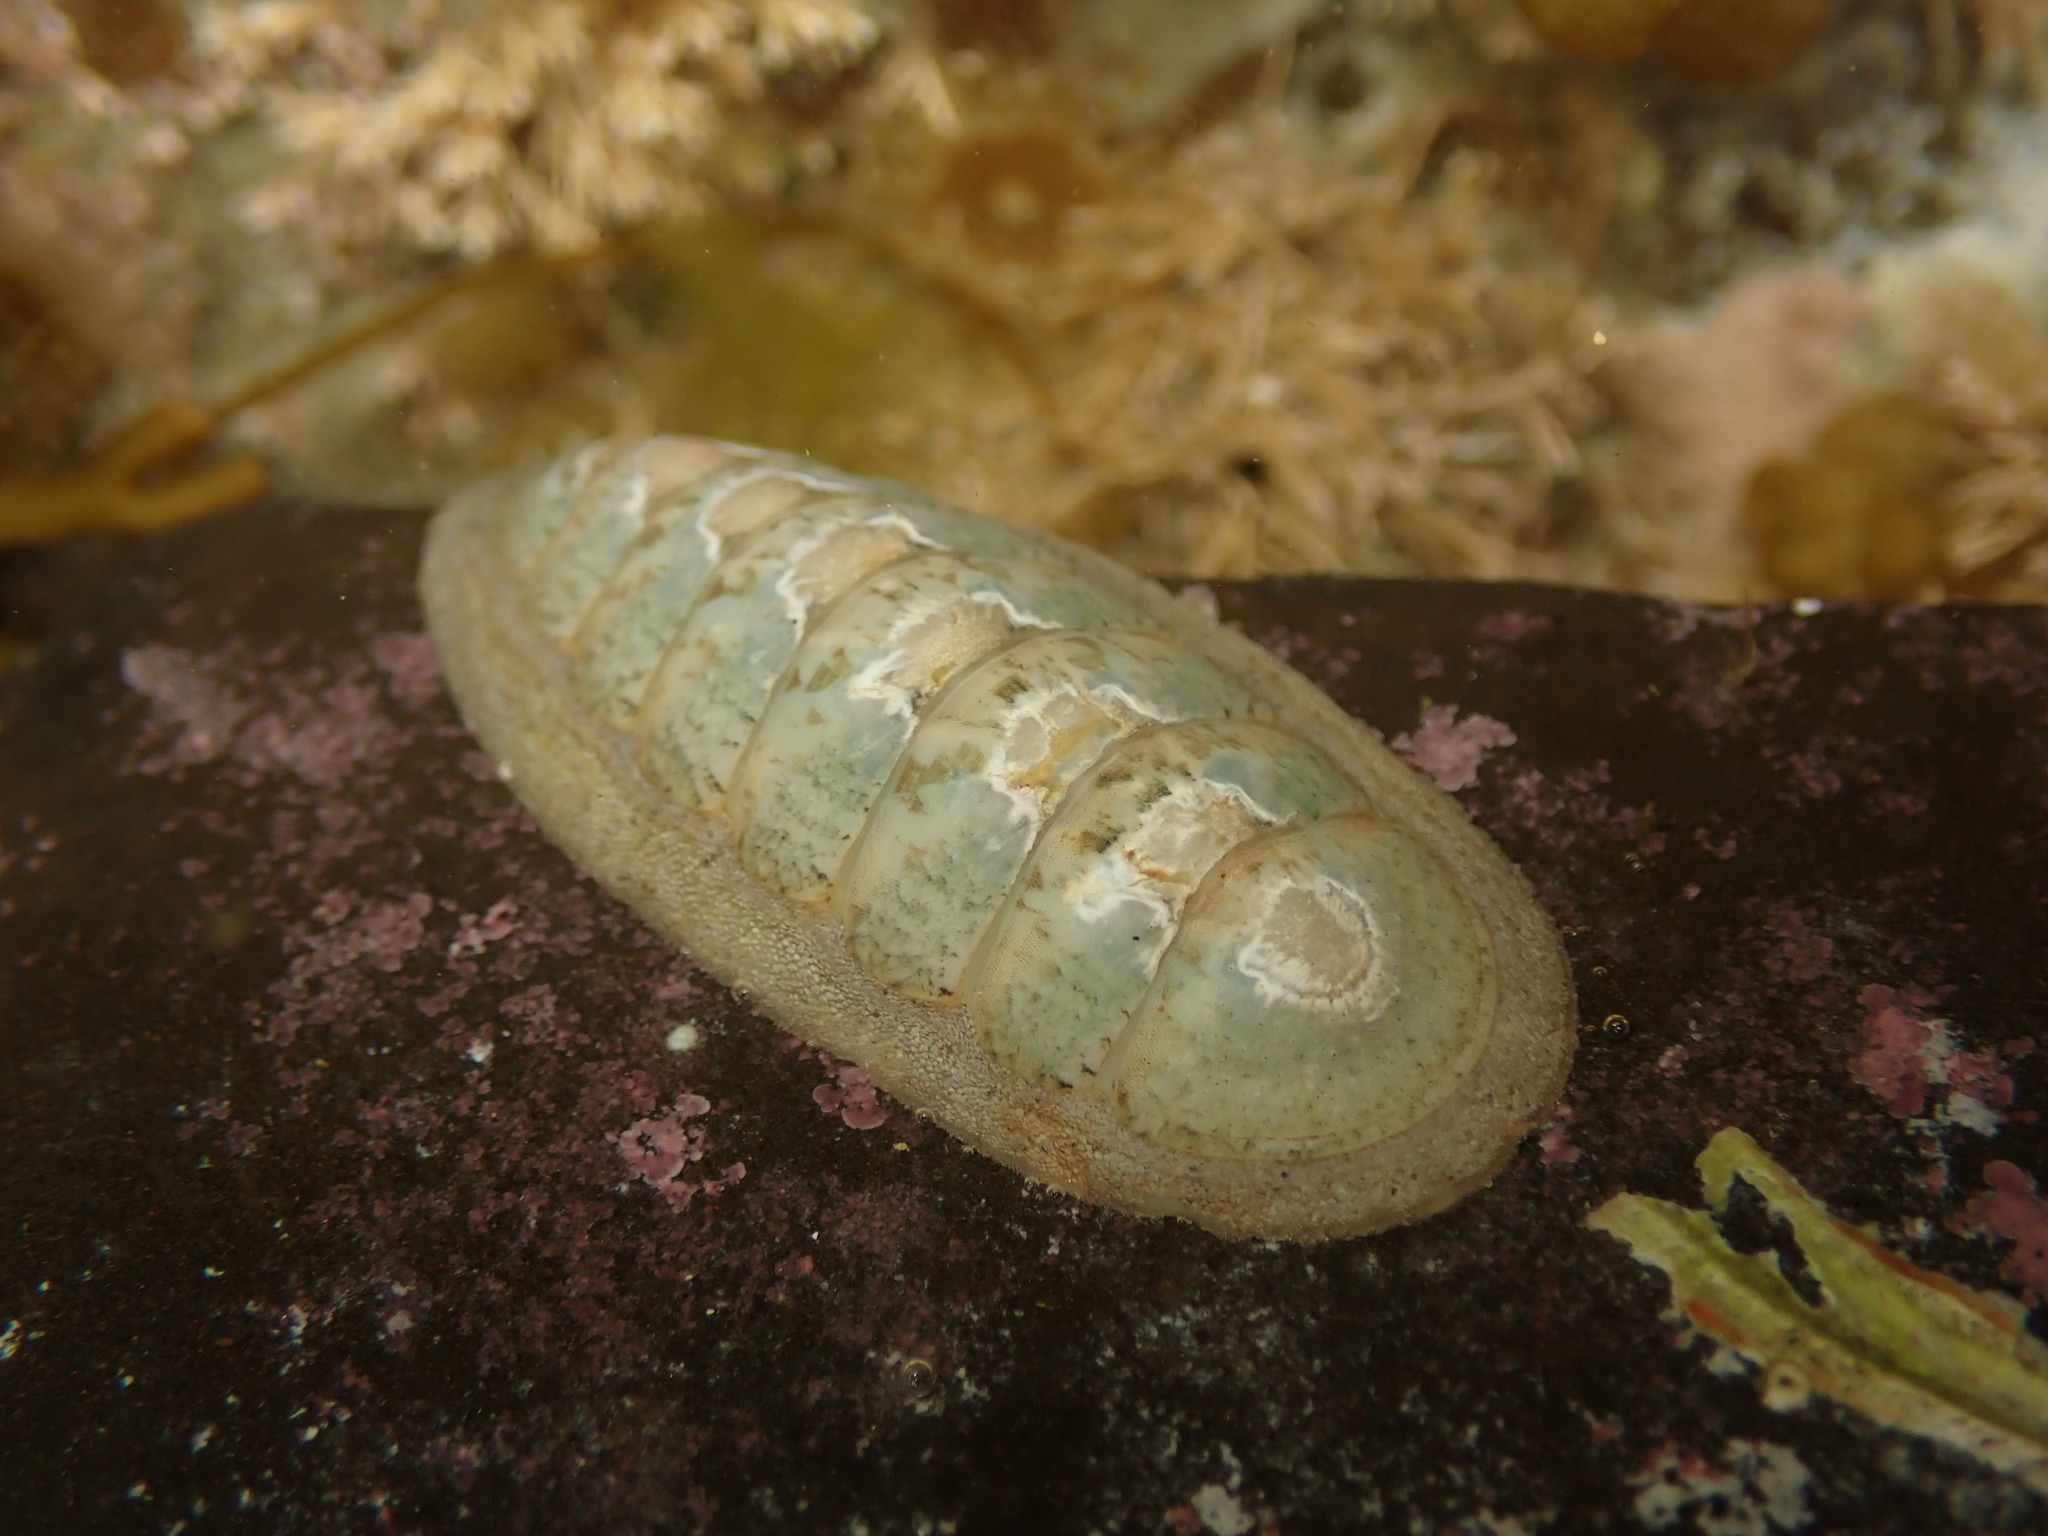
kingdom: Animalia
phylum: Mollusca
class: Polyplacophora
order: Chitonida
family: Ischnochitonidae
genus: Ischnochiton
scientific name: Ischnochiton maorianus
